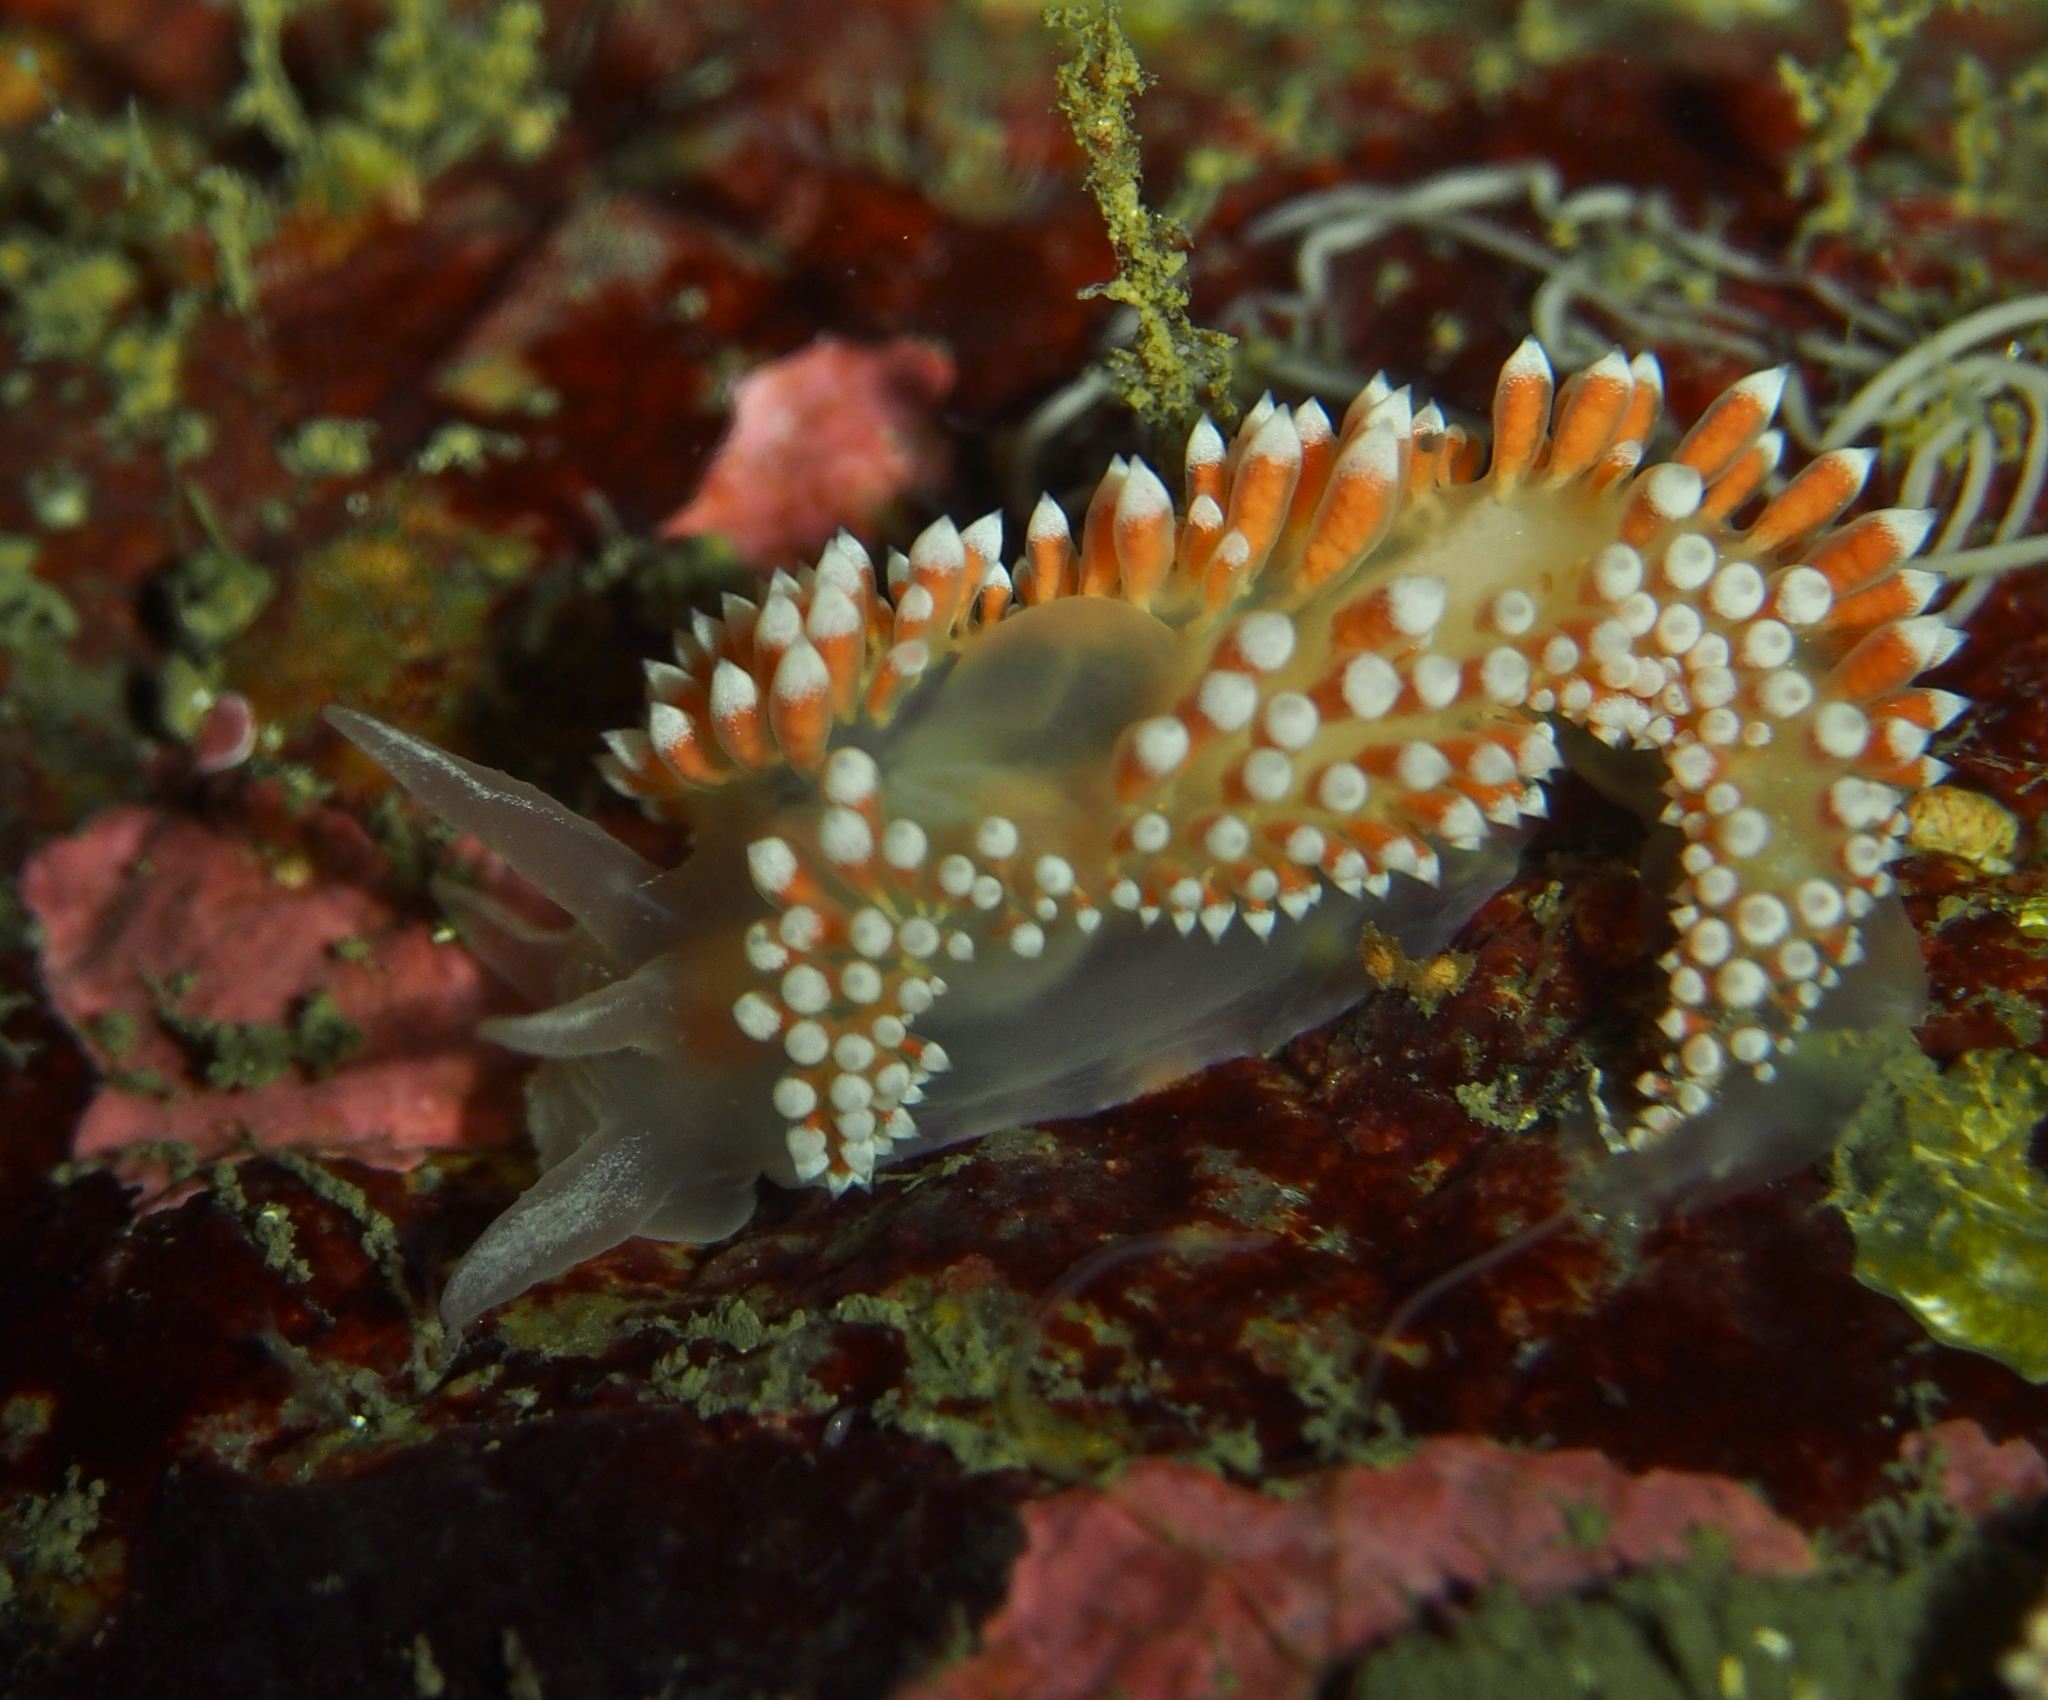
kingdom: Animalia
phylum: Mollusca
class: Gastropoda
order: Nudibranchia
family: Coryphellidae
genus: Coryphella
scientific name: Coryphella verrucosa
